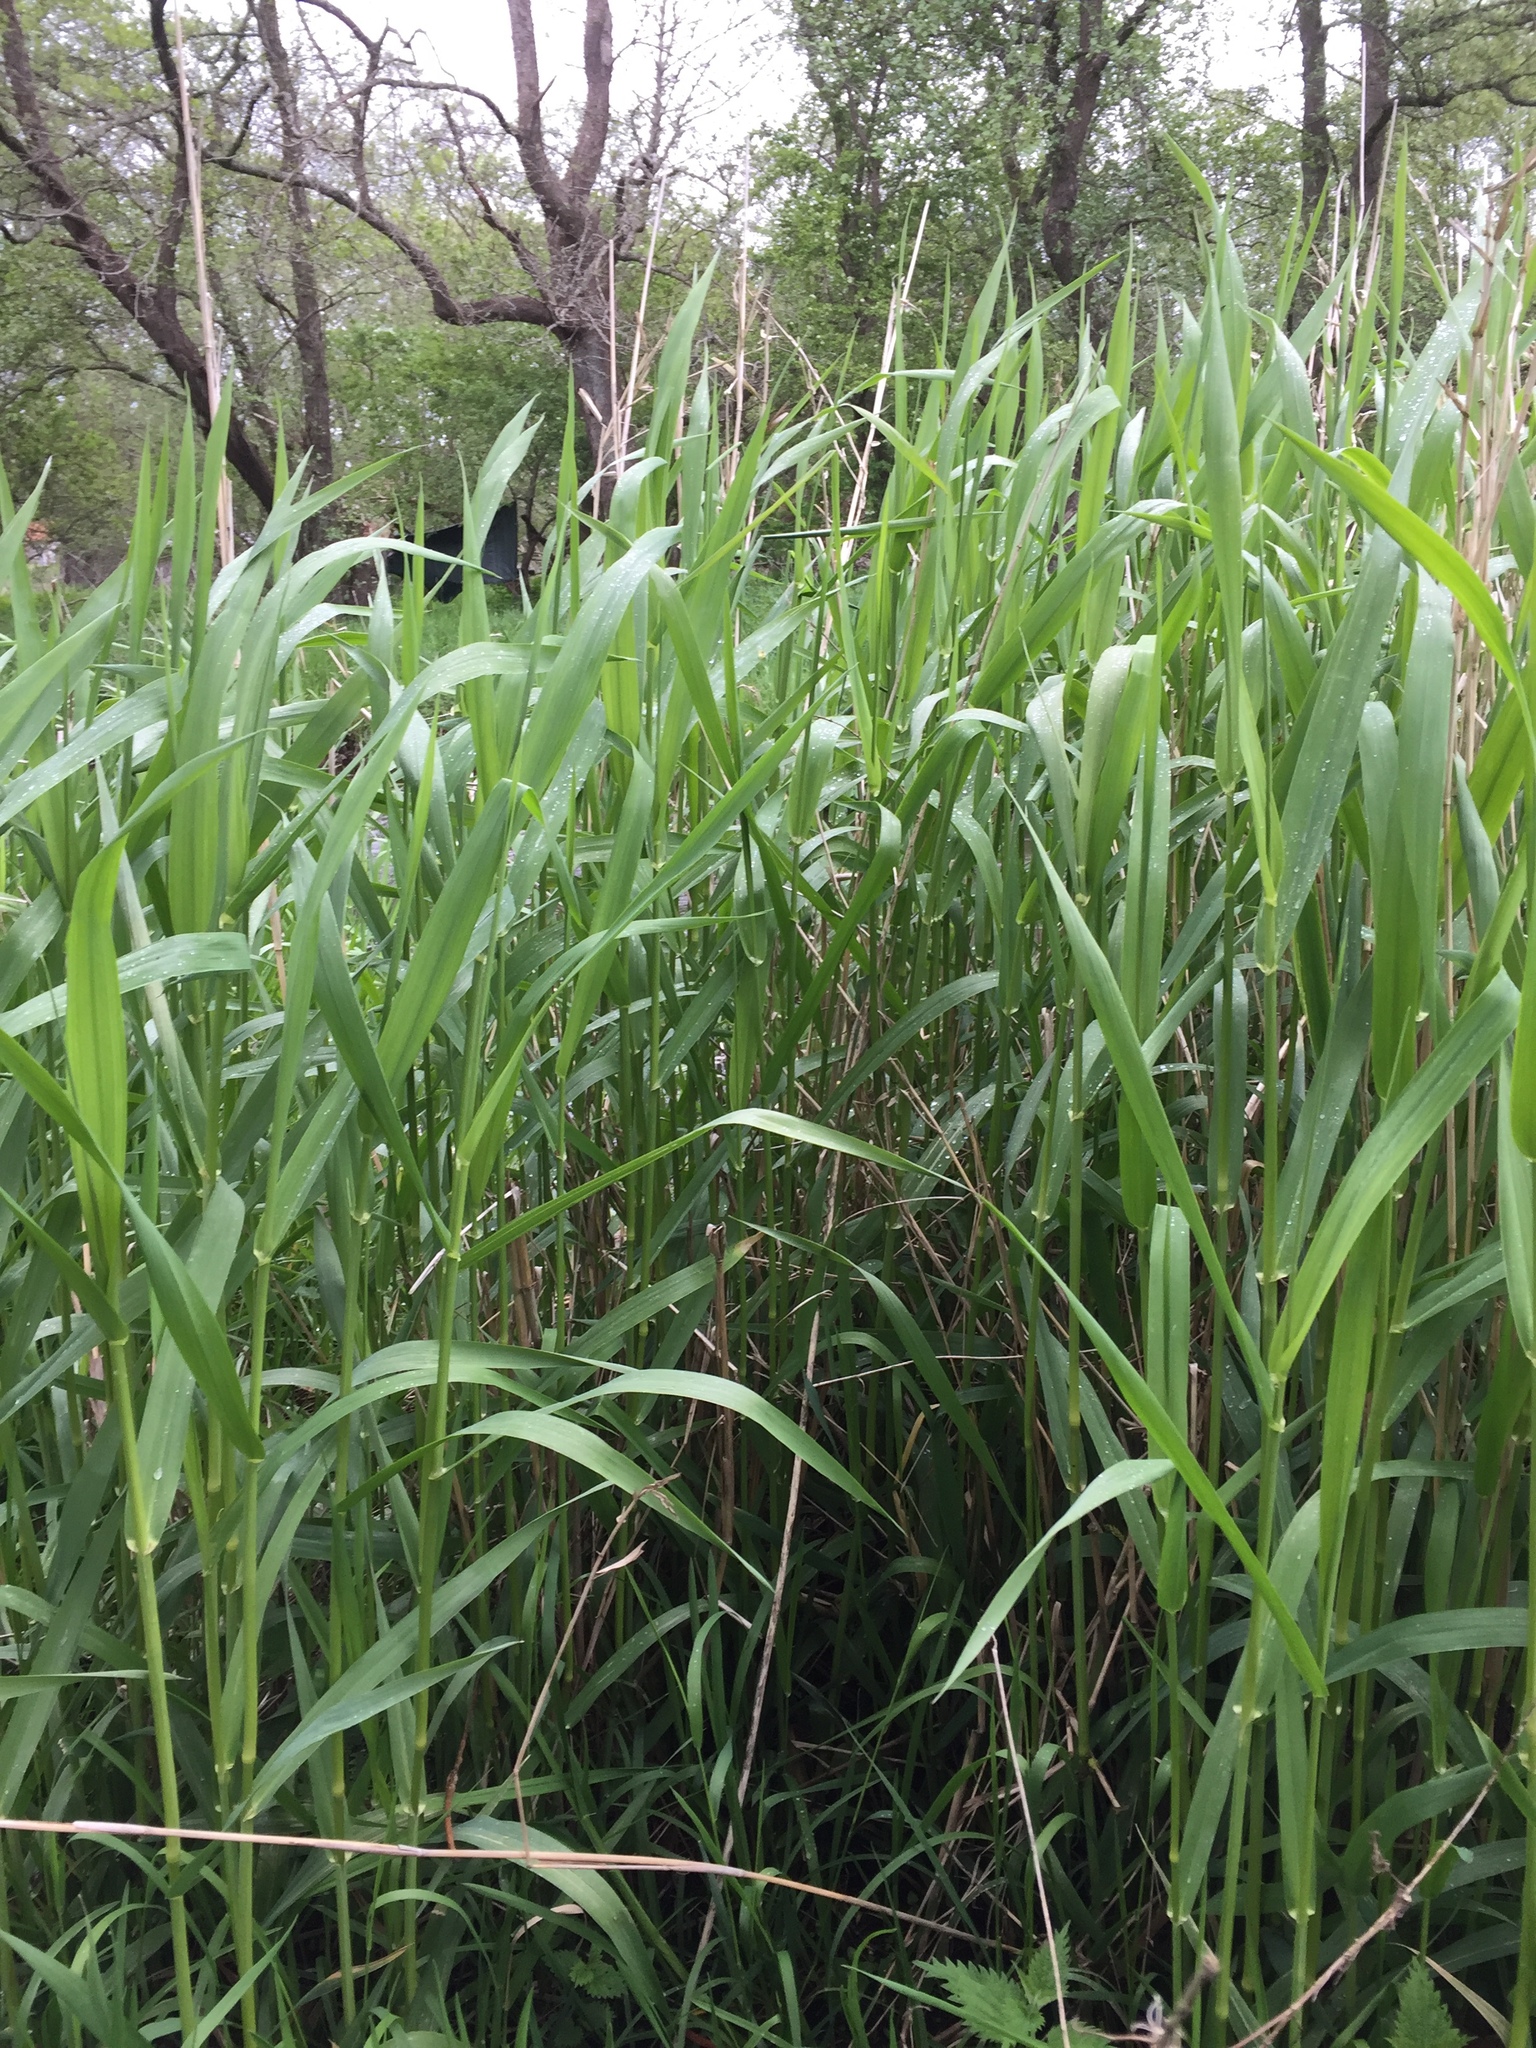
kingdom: Plantae
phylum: Tracheophyta
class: Liliopsida
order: Poales
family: Poaceae
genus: Phragmites
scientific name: Phragmites australis
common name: Common reed
